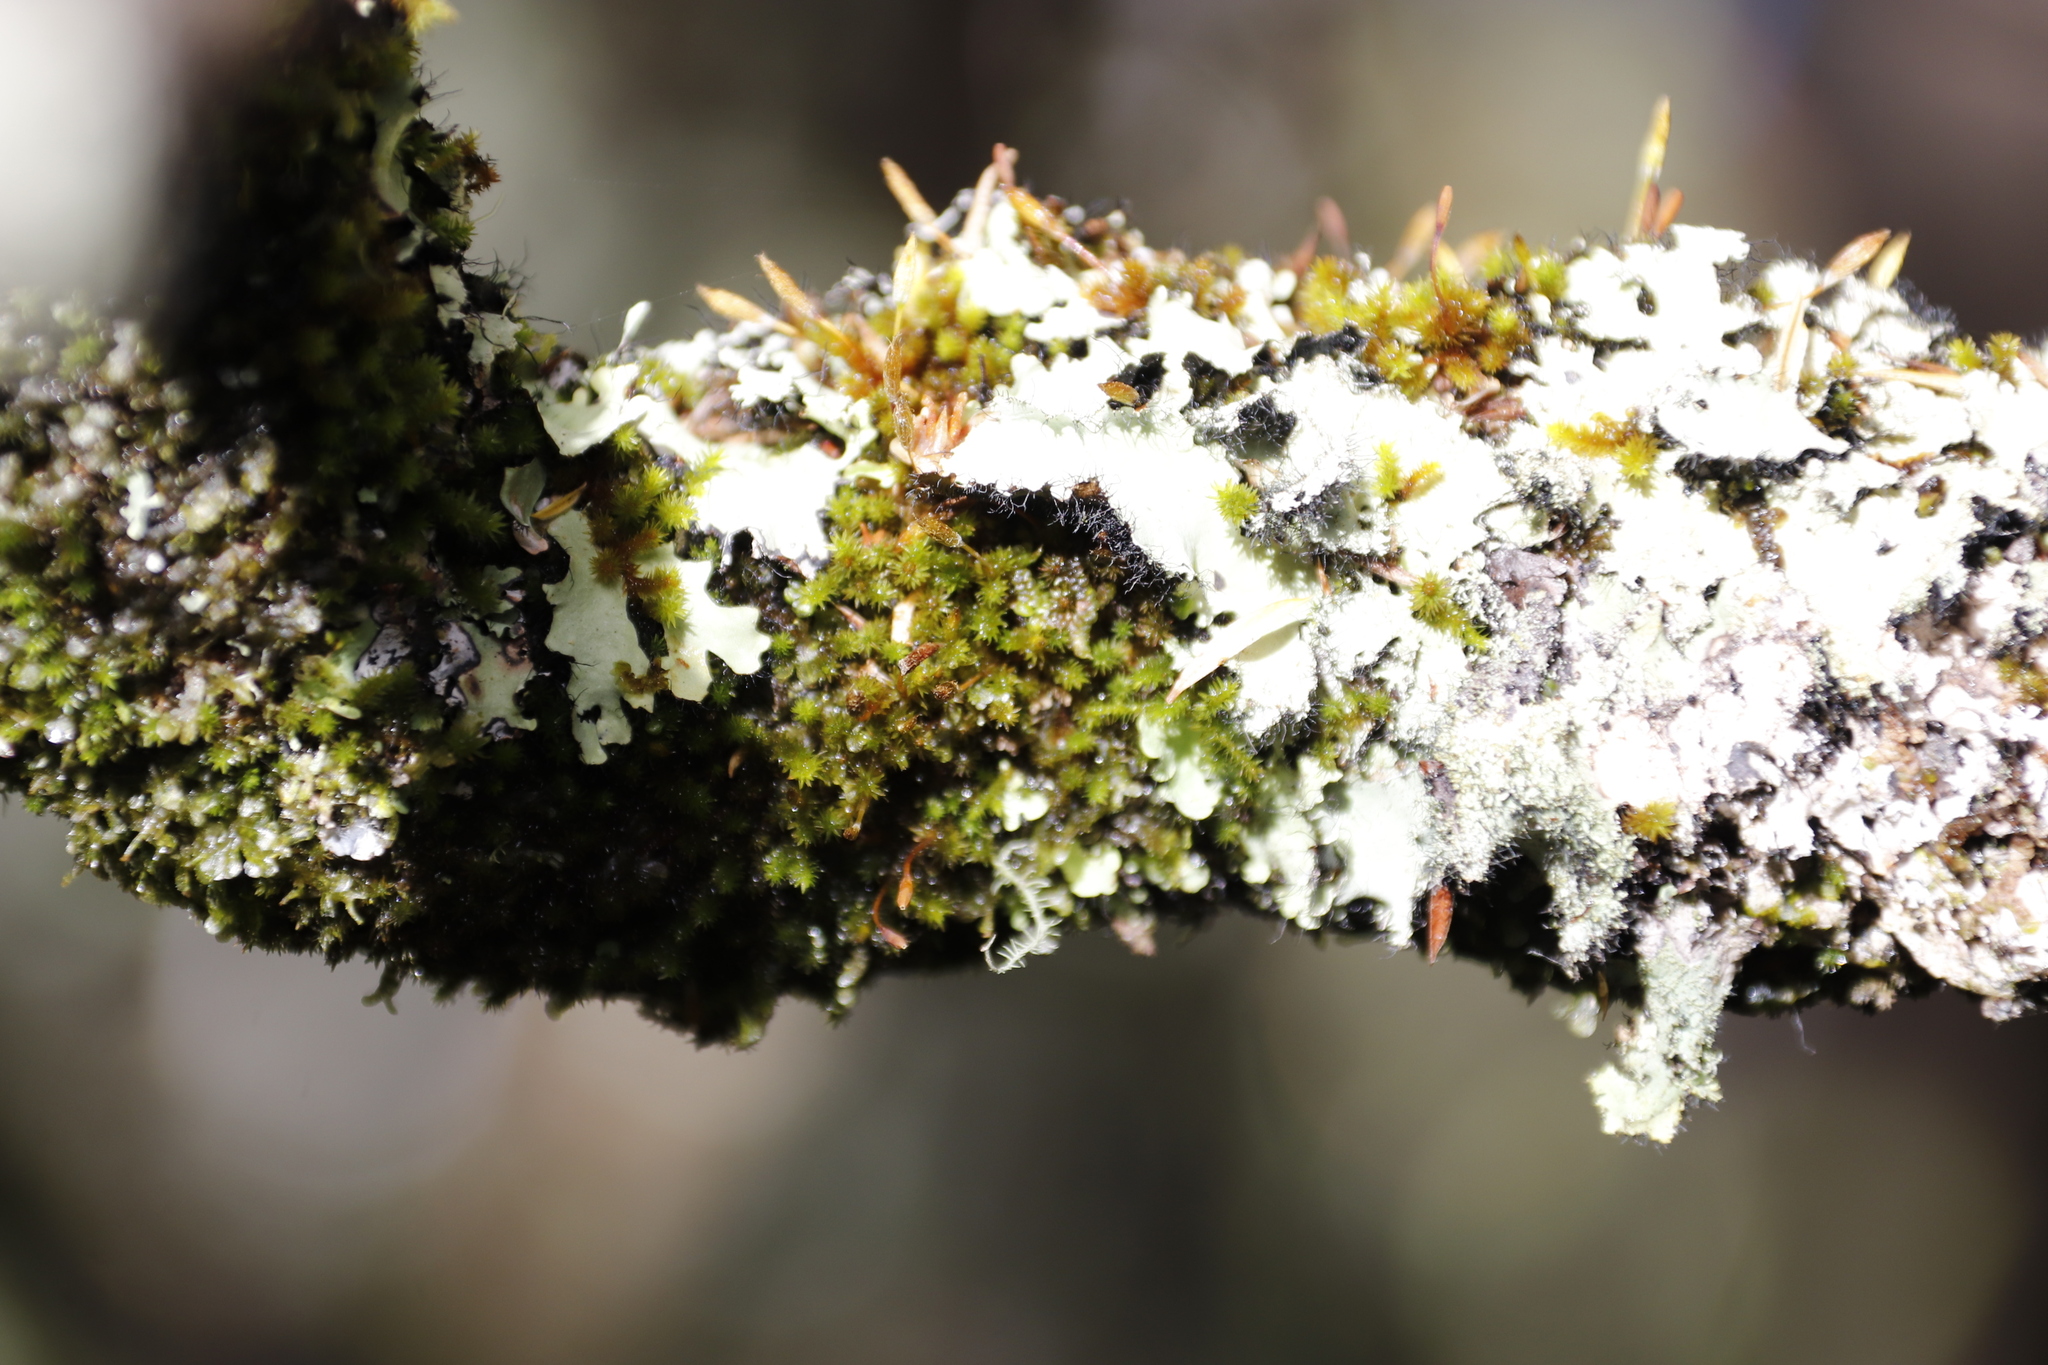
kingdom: Plantae
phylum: Bryophyta
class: Bryopsida
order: Orthotrichales
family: Orthotrichaceae
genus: Macrocoma
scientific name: Macrocoma pulchella
